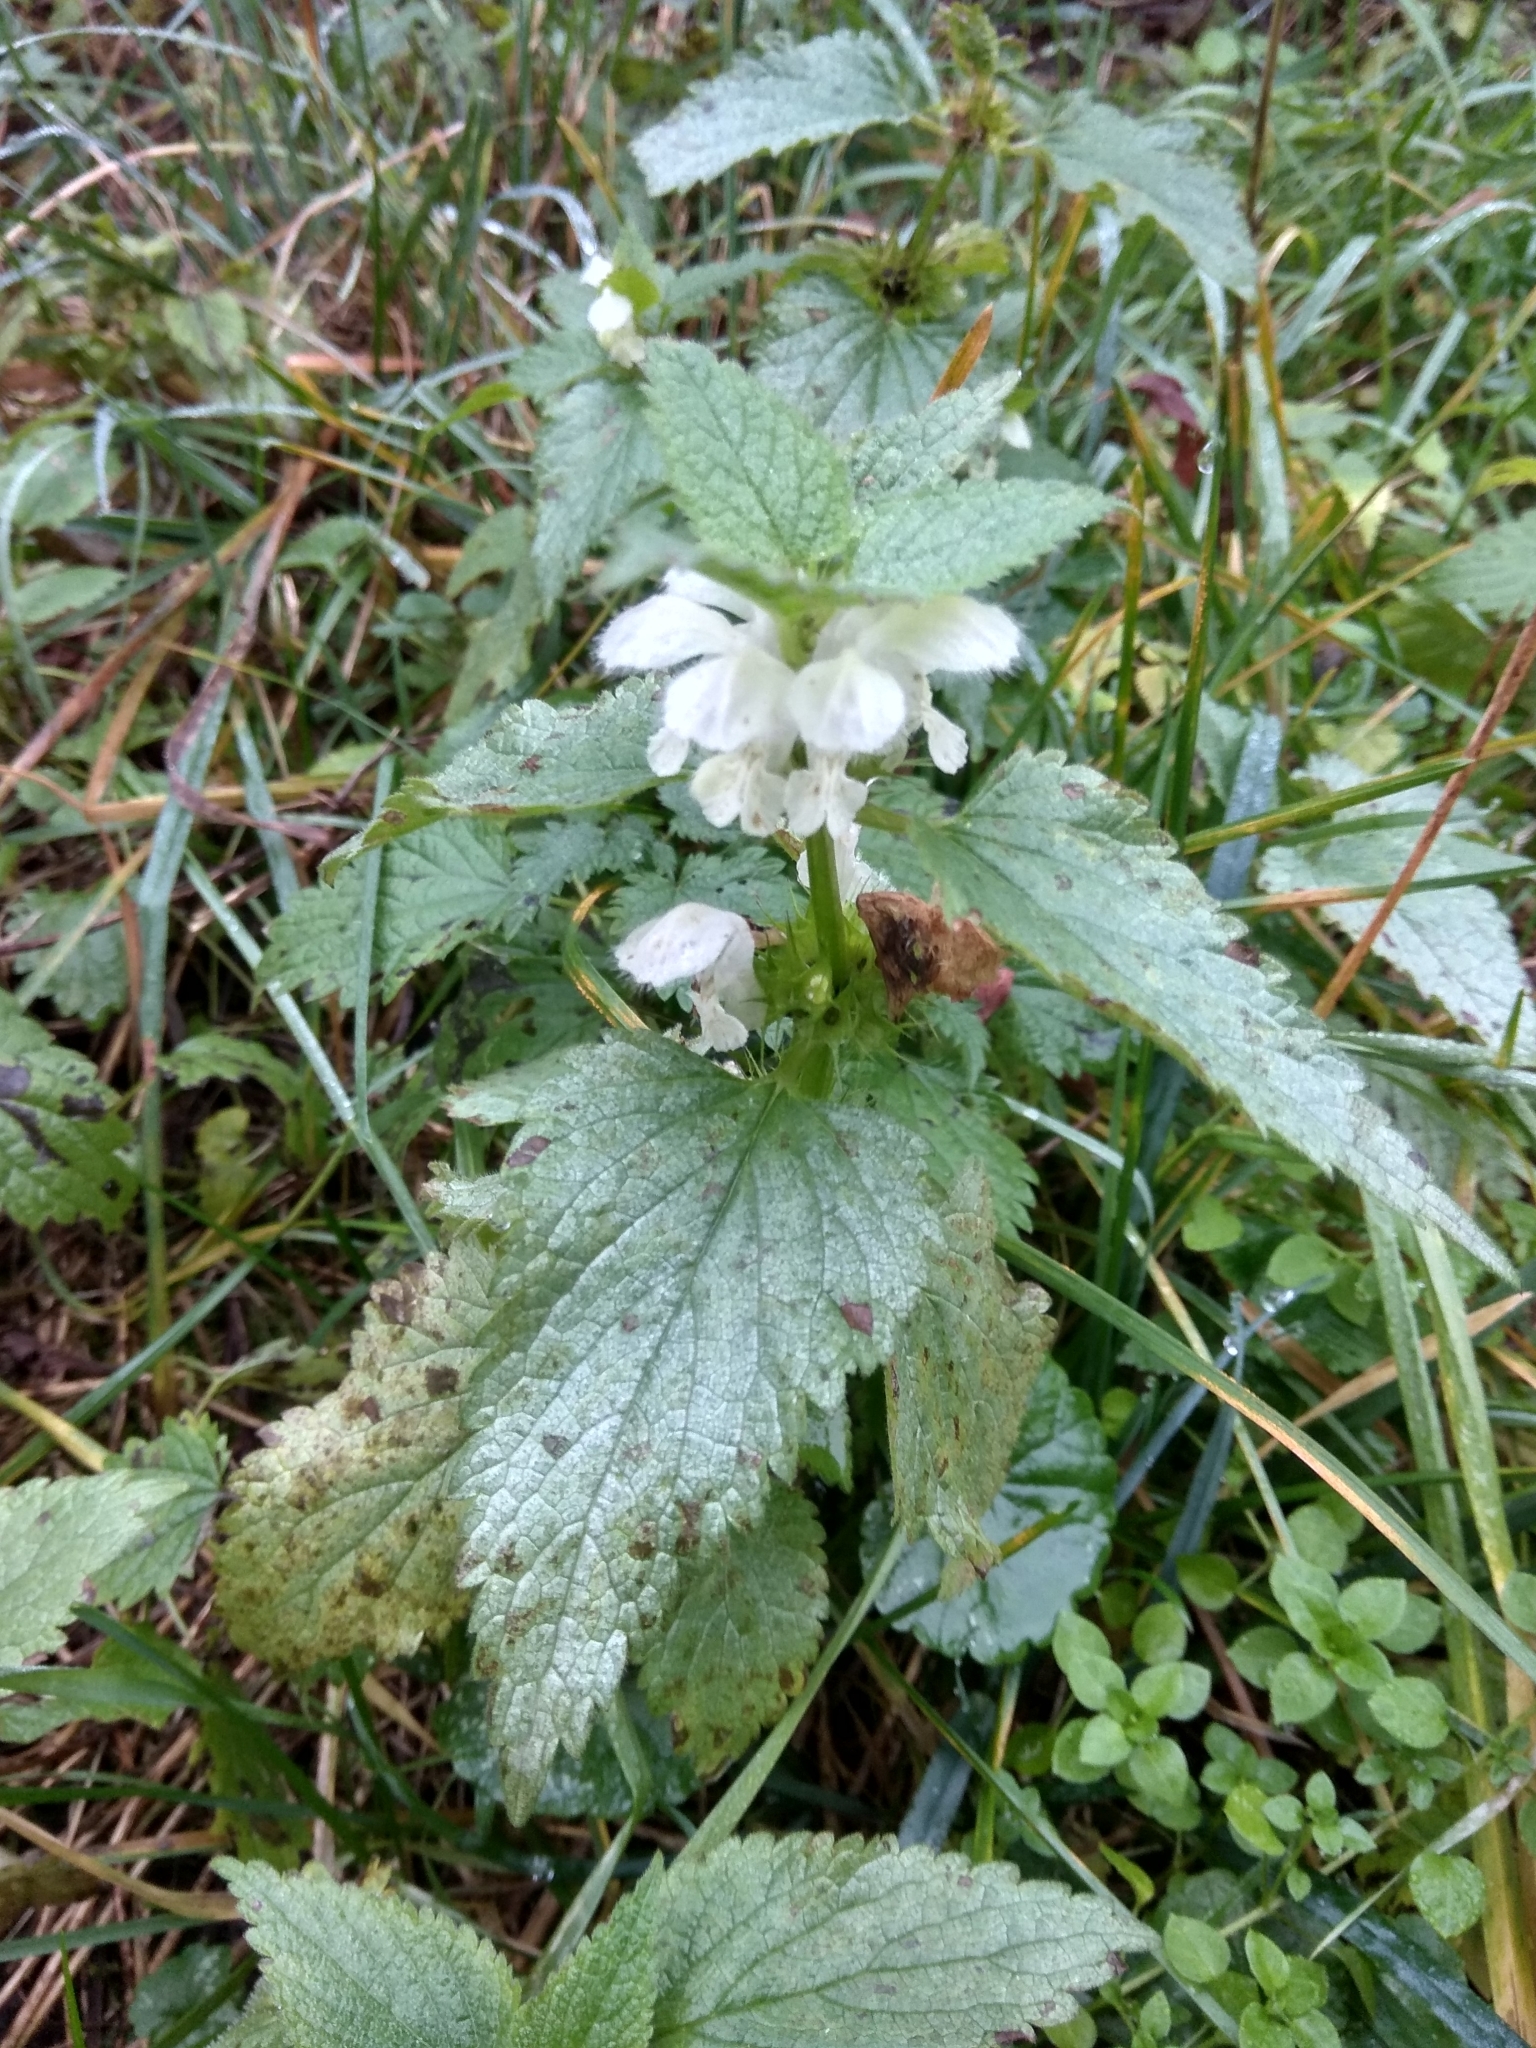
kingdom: Plantae
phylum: Tracheophyta
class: Magnoliopsida
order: Lamiales
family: Lamiaceae
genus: Lamium
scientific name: Lamium album
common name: White dead-nettle
